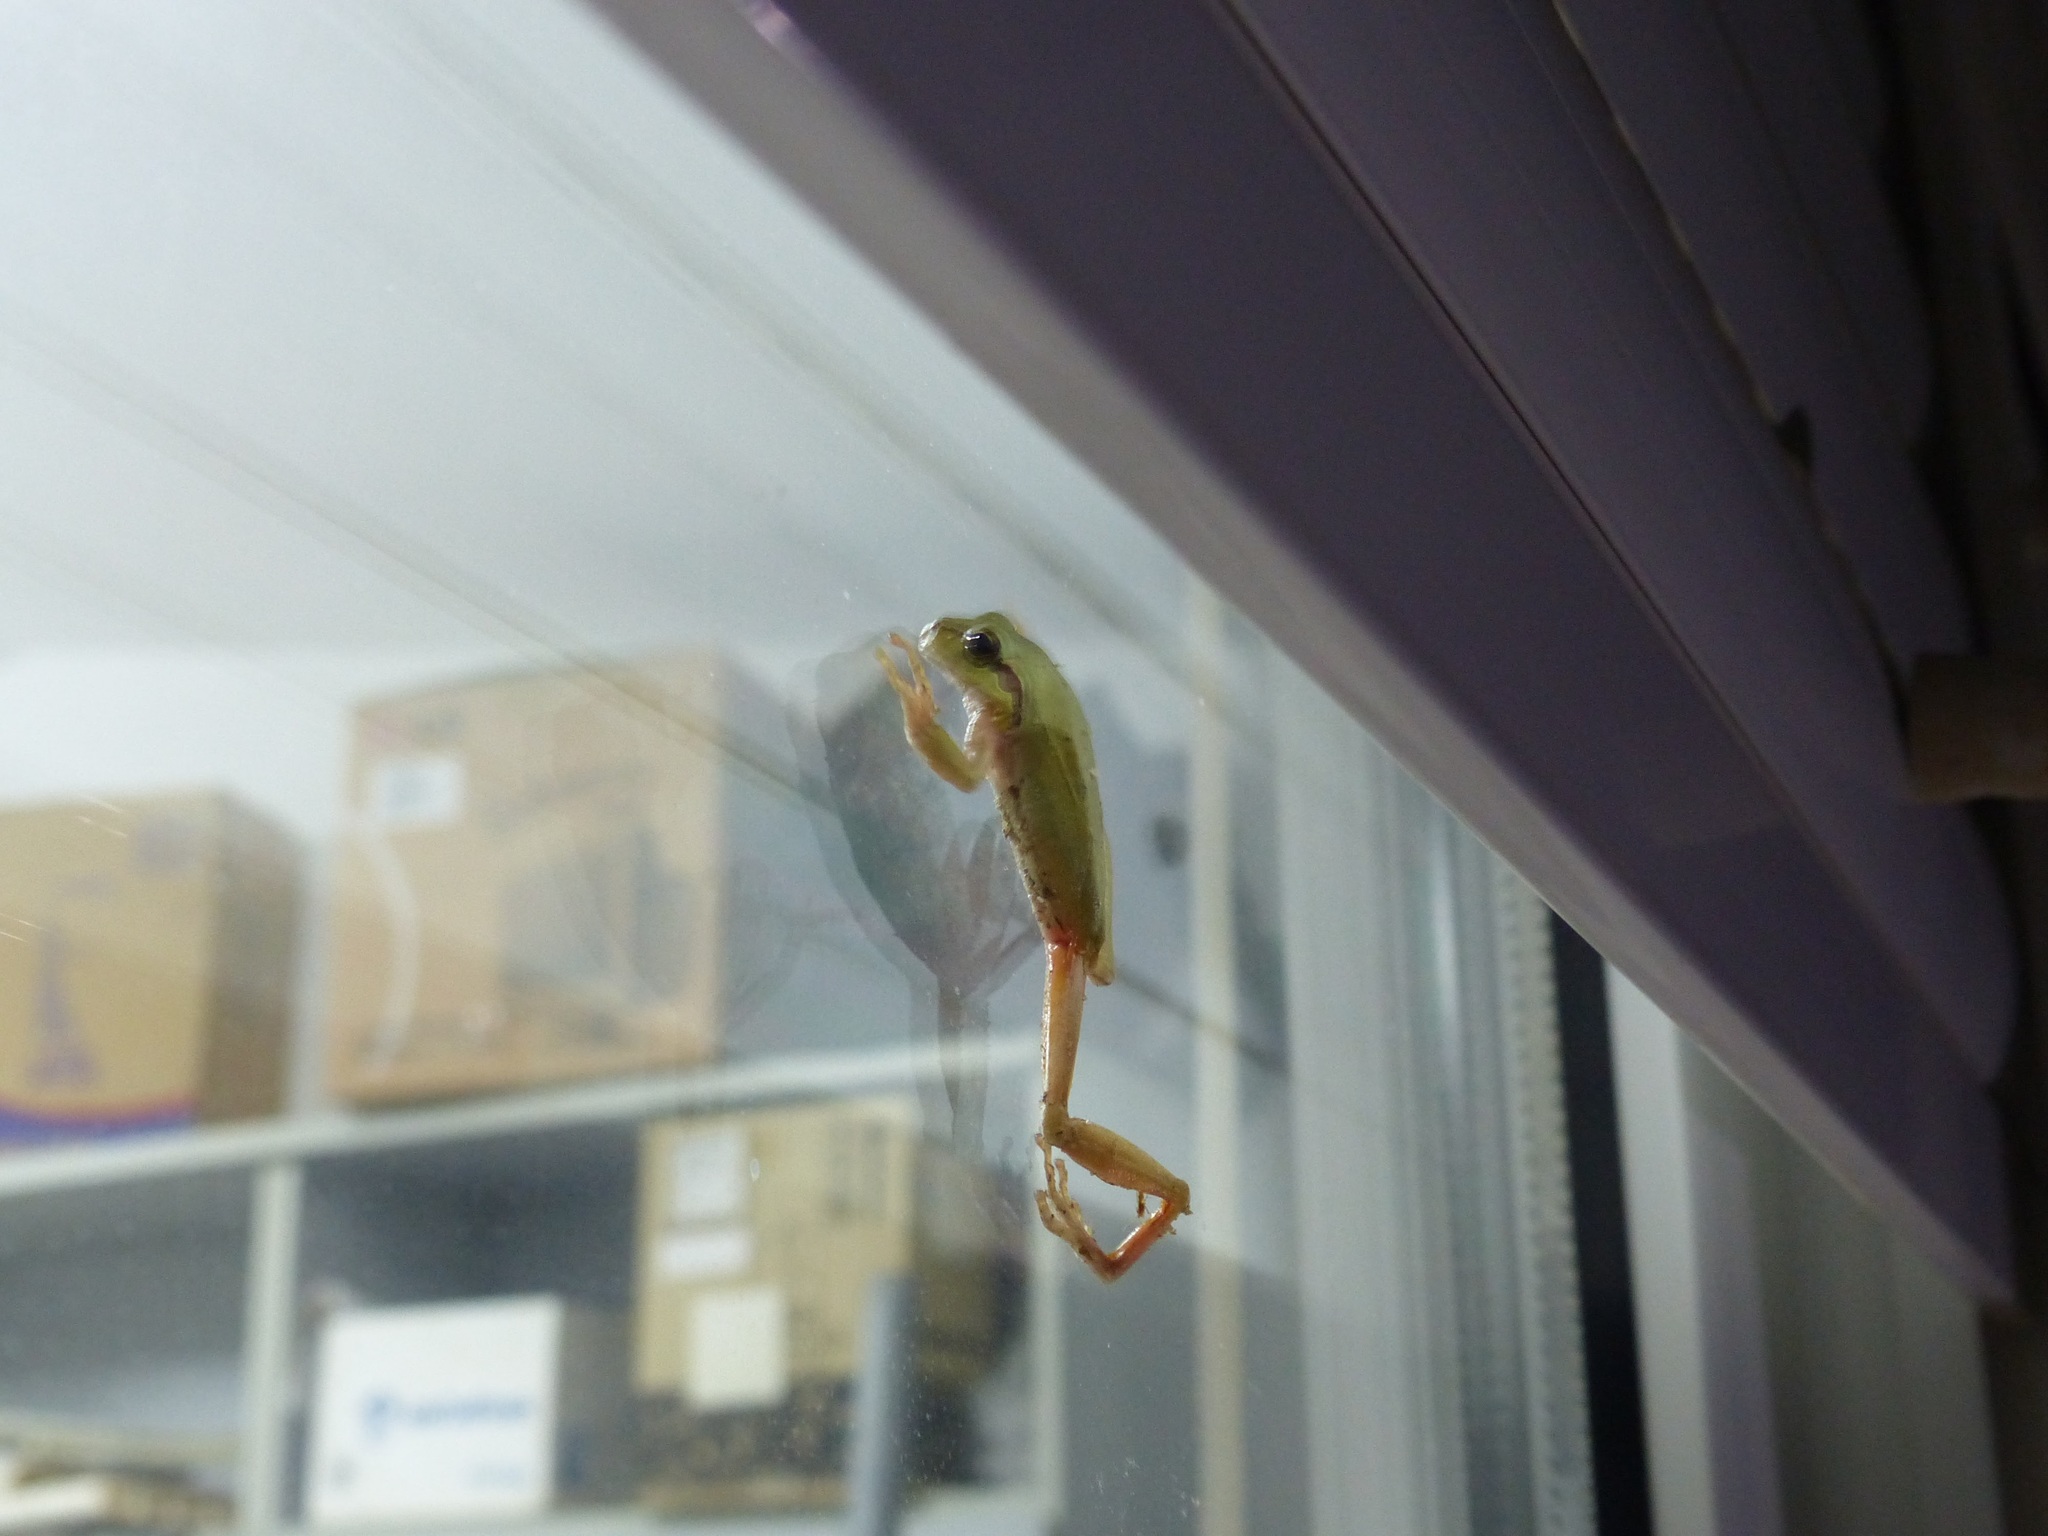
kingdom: Animalia
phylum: Chordata
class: Amphibia
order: Anura
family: Hylidae
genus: Hyla
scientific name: Hyla meridionalis
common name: Stripeless tree frog
